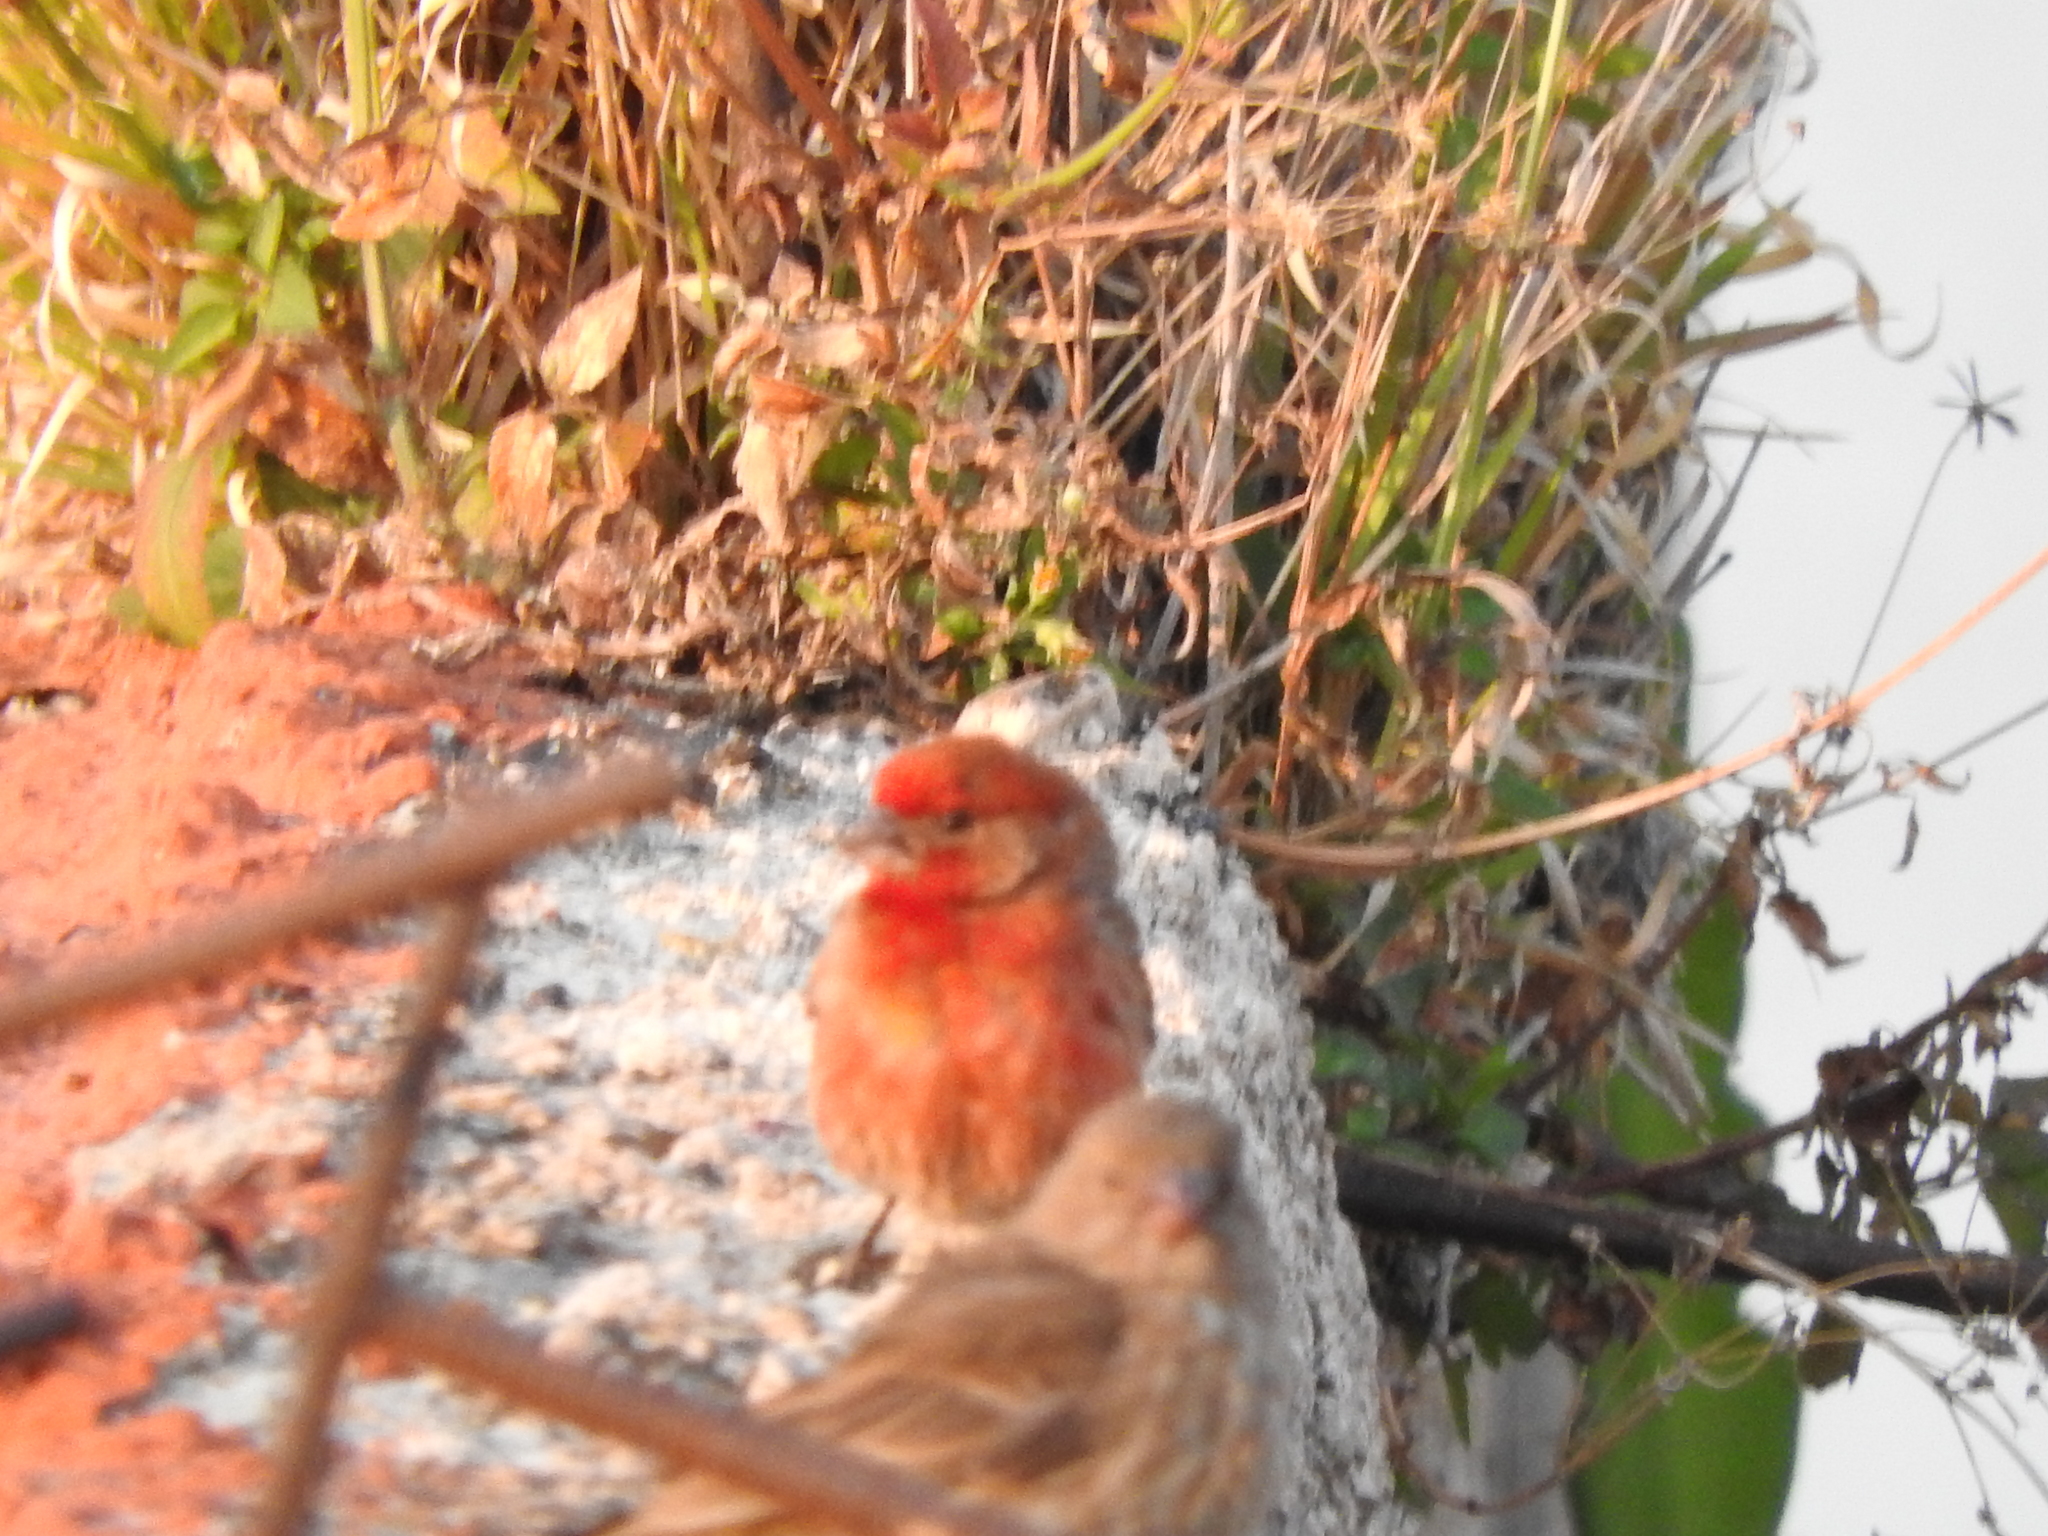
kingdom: Animalia
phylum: Chordata
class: Aves
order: Passeriformes
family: Fringillidae
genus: Haemorhous
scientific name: Haemorhous mexicanus
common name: House finch
